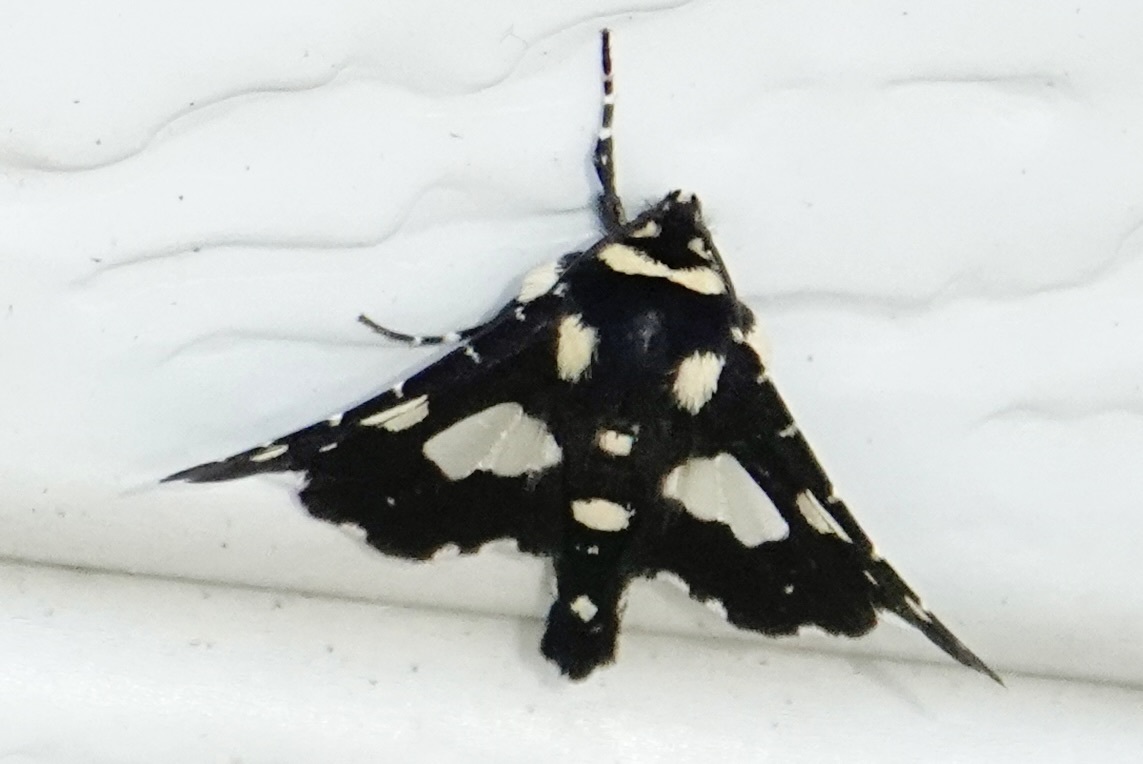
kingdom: Animalia
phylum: Arthropoda
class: Insecta
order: Lepidoptera
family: Thyrididae
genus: Pseudothyris
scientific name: Pseudothyris sepulchralis
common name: Mournful thyris moth
